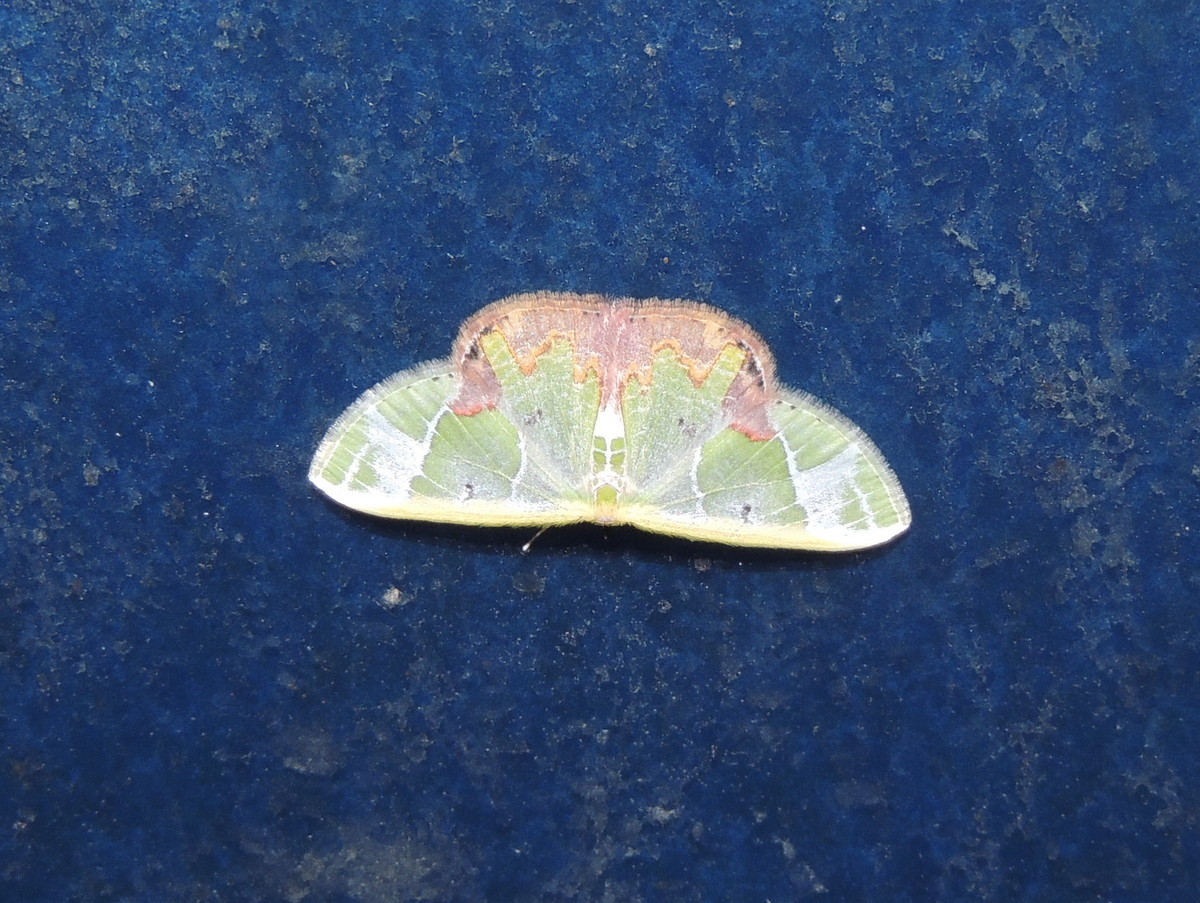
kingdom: Animalia
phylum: Arthropoda
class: Insecta
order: Lepidoptera
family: Geometridae
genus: Comibaena
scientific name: Comibaena pictipennis
